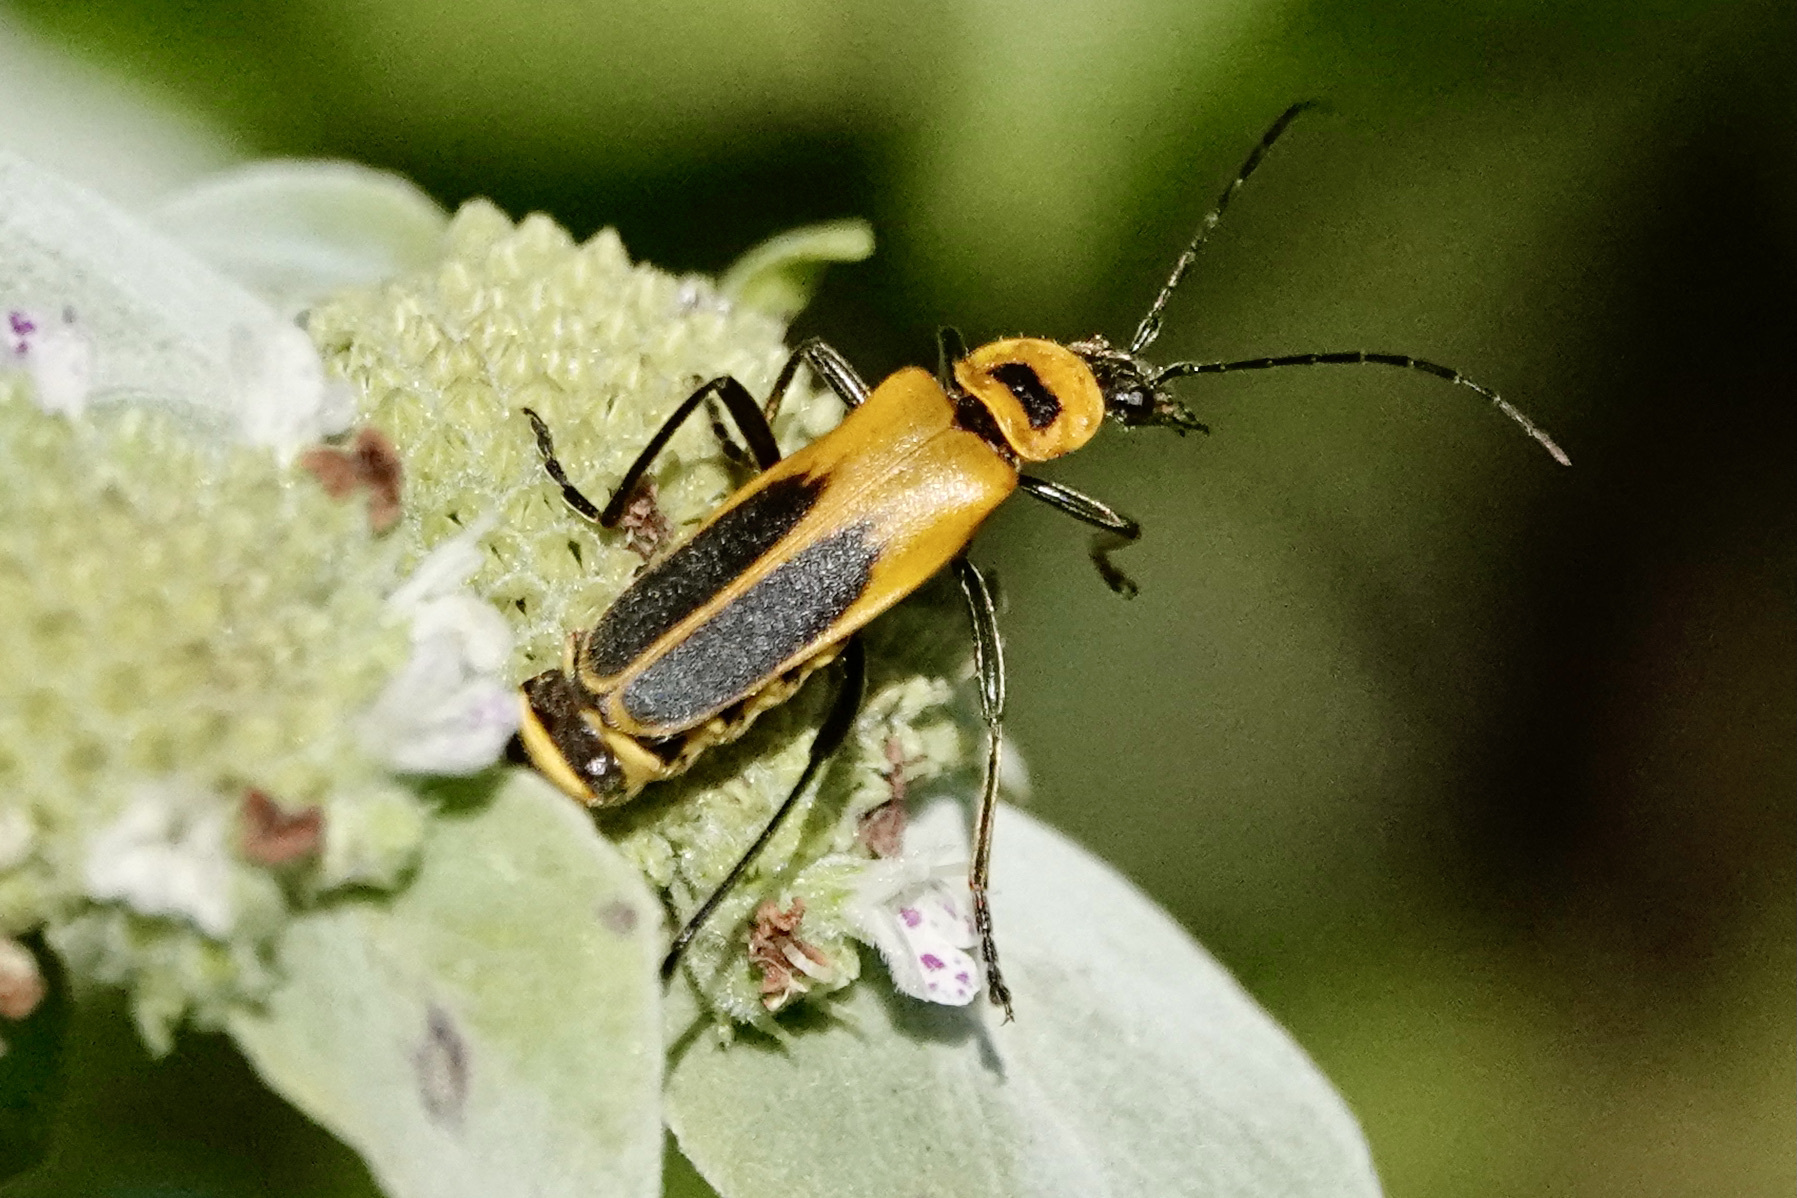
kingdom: Animalia
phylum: Arthropoda
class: Insecta
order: Coleoptera
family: Cantharidae
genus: Chauliognathus
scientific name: Chauliognathus pensylvanicus
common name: Goldenrod soldier beetle
